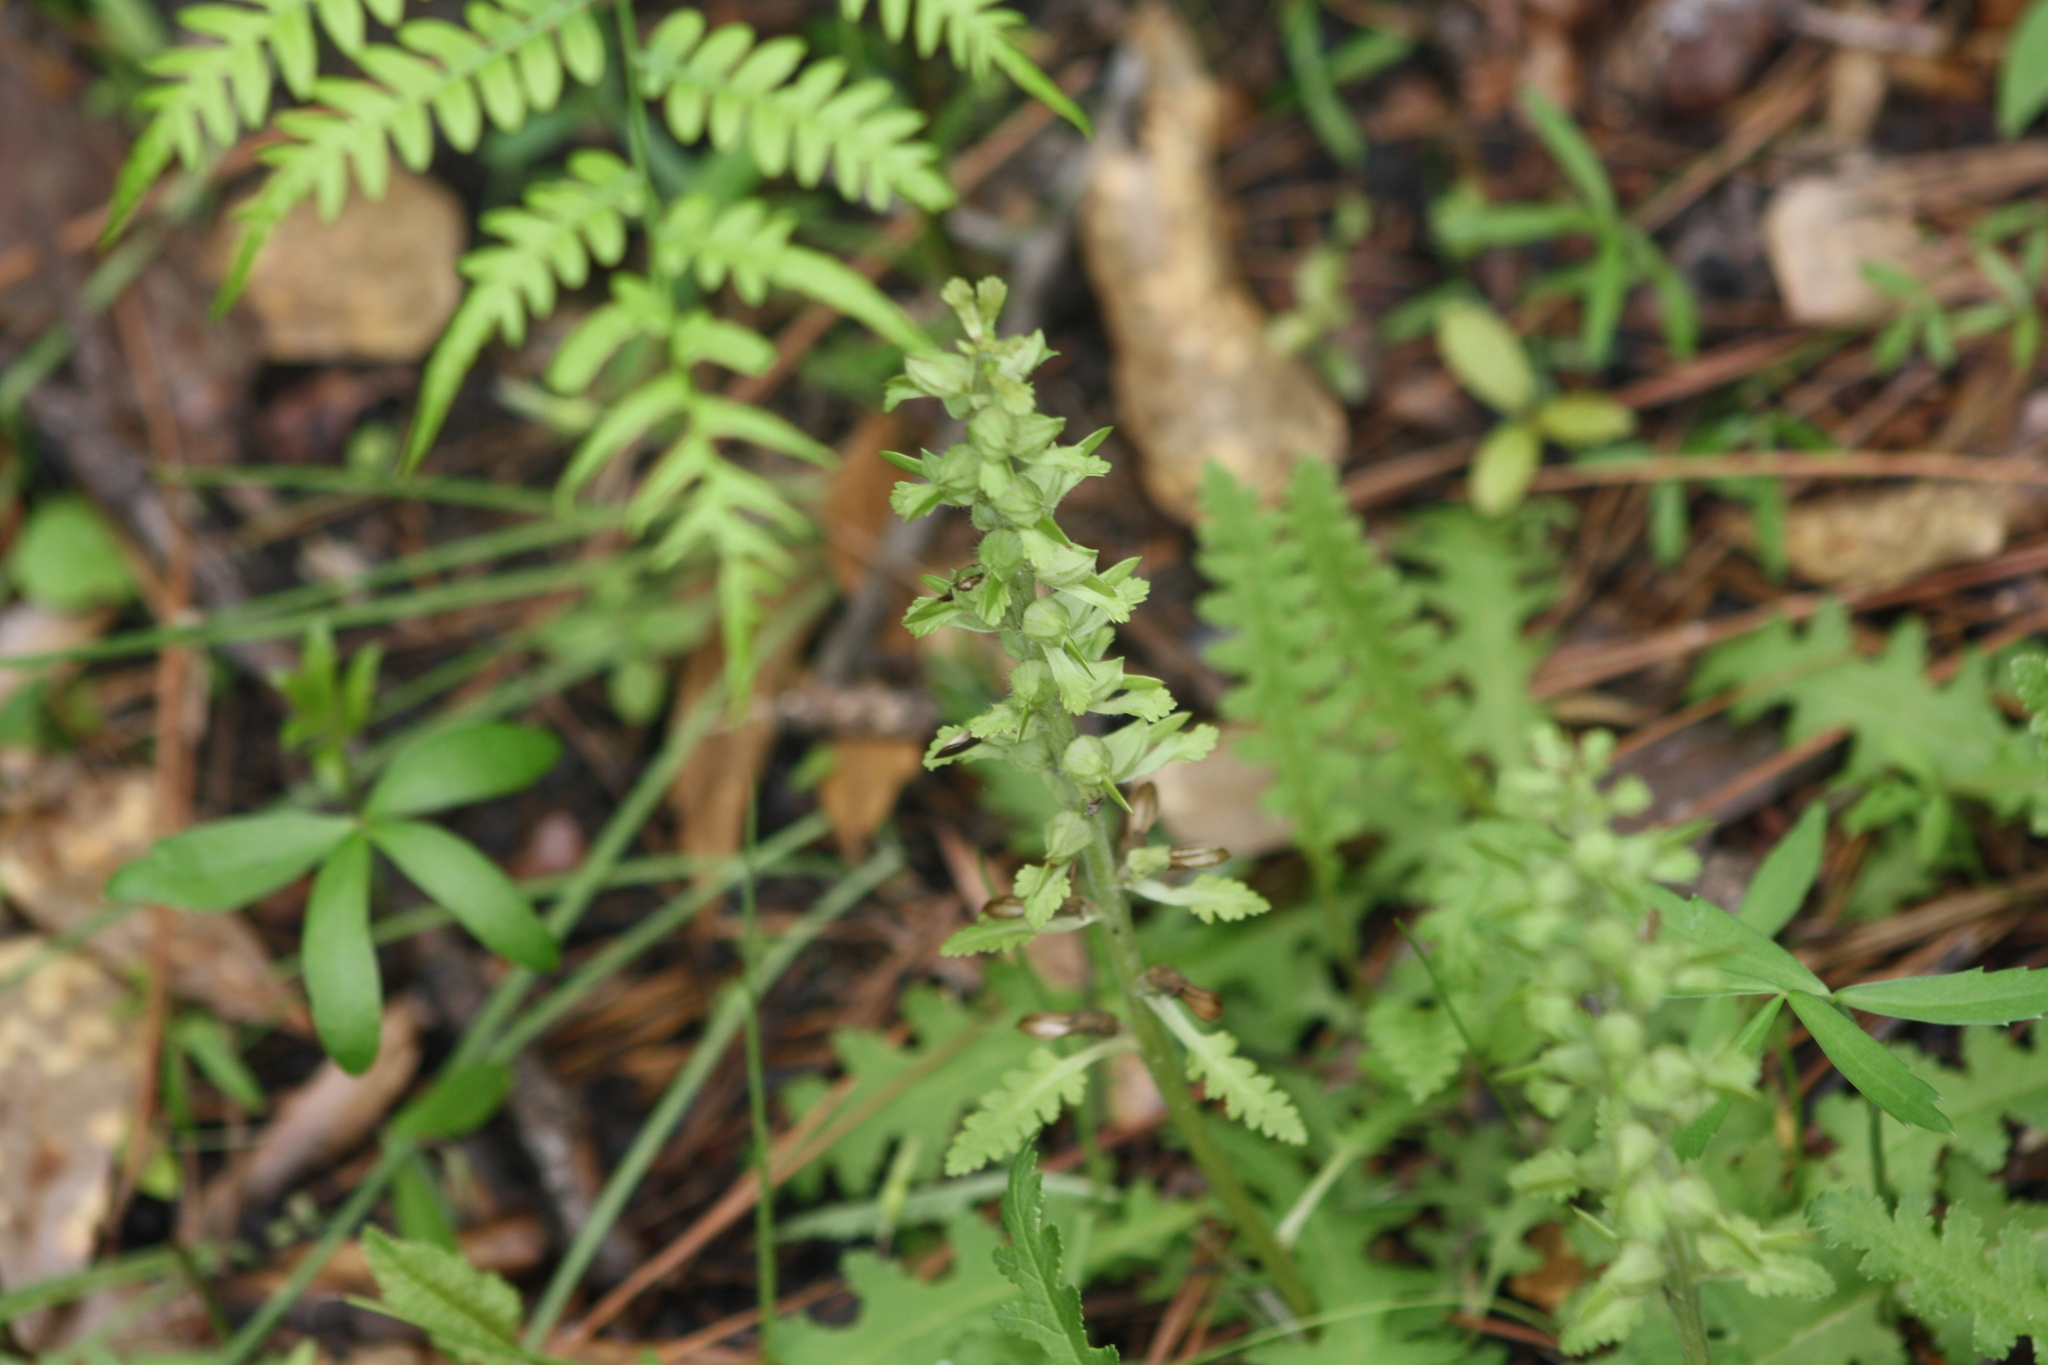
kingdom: Plantae
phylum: Tracheophyta
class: Magnoliopsida
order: Lamiales
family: Orobanchaceae
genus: Pedicularis
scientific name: Pedicularis canadensis
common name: Early lousewort
